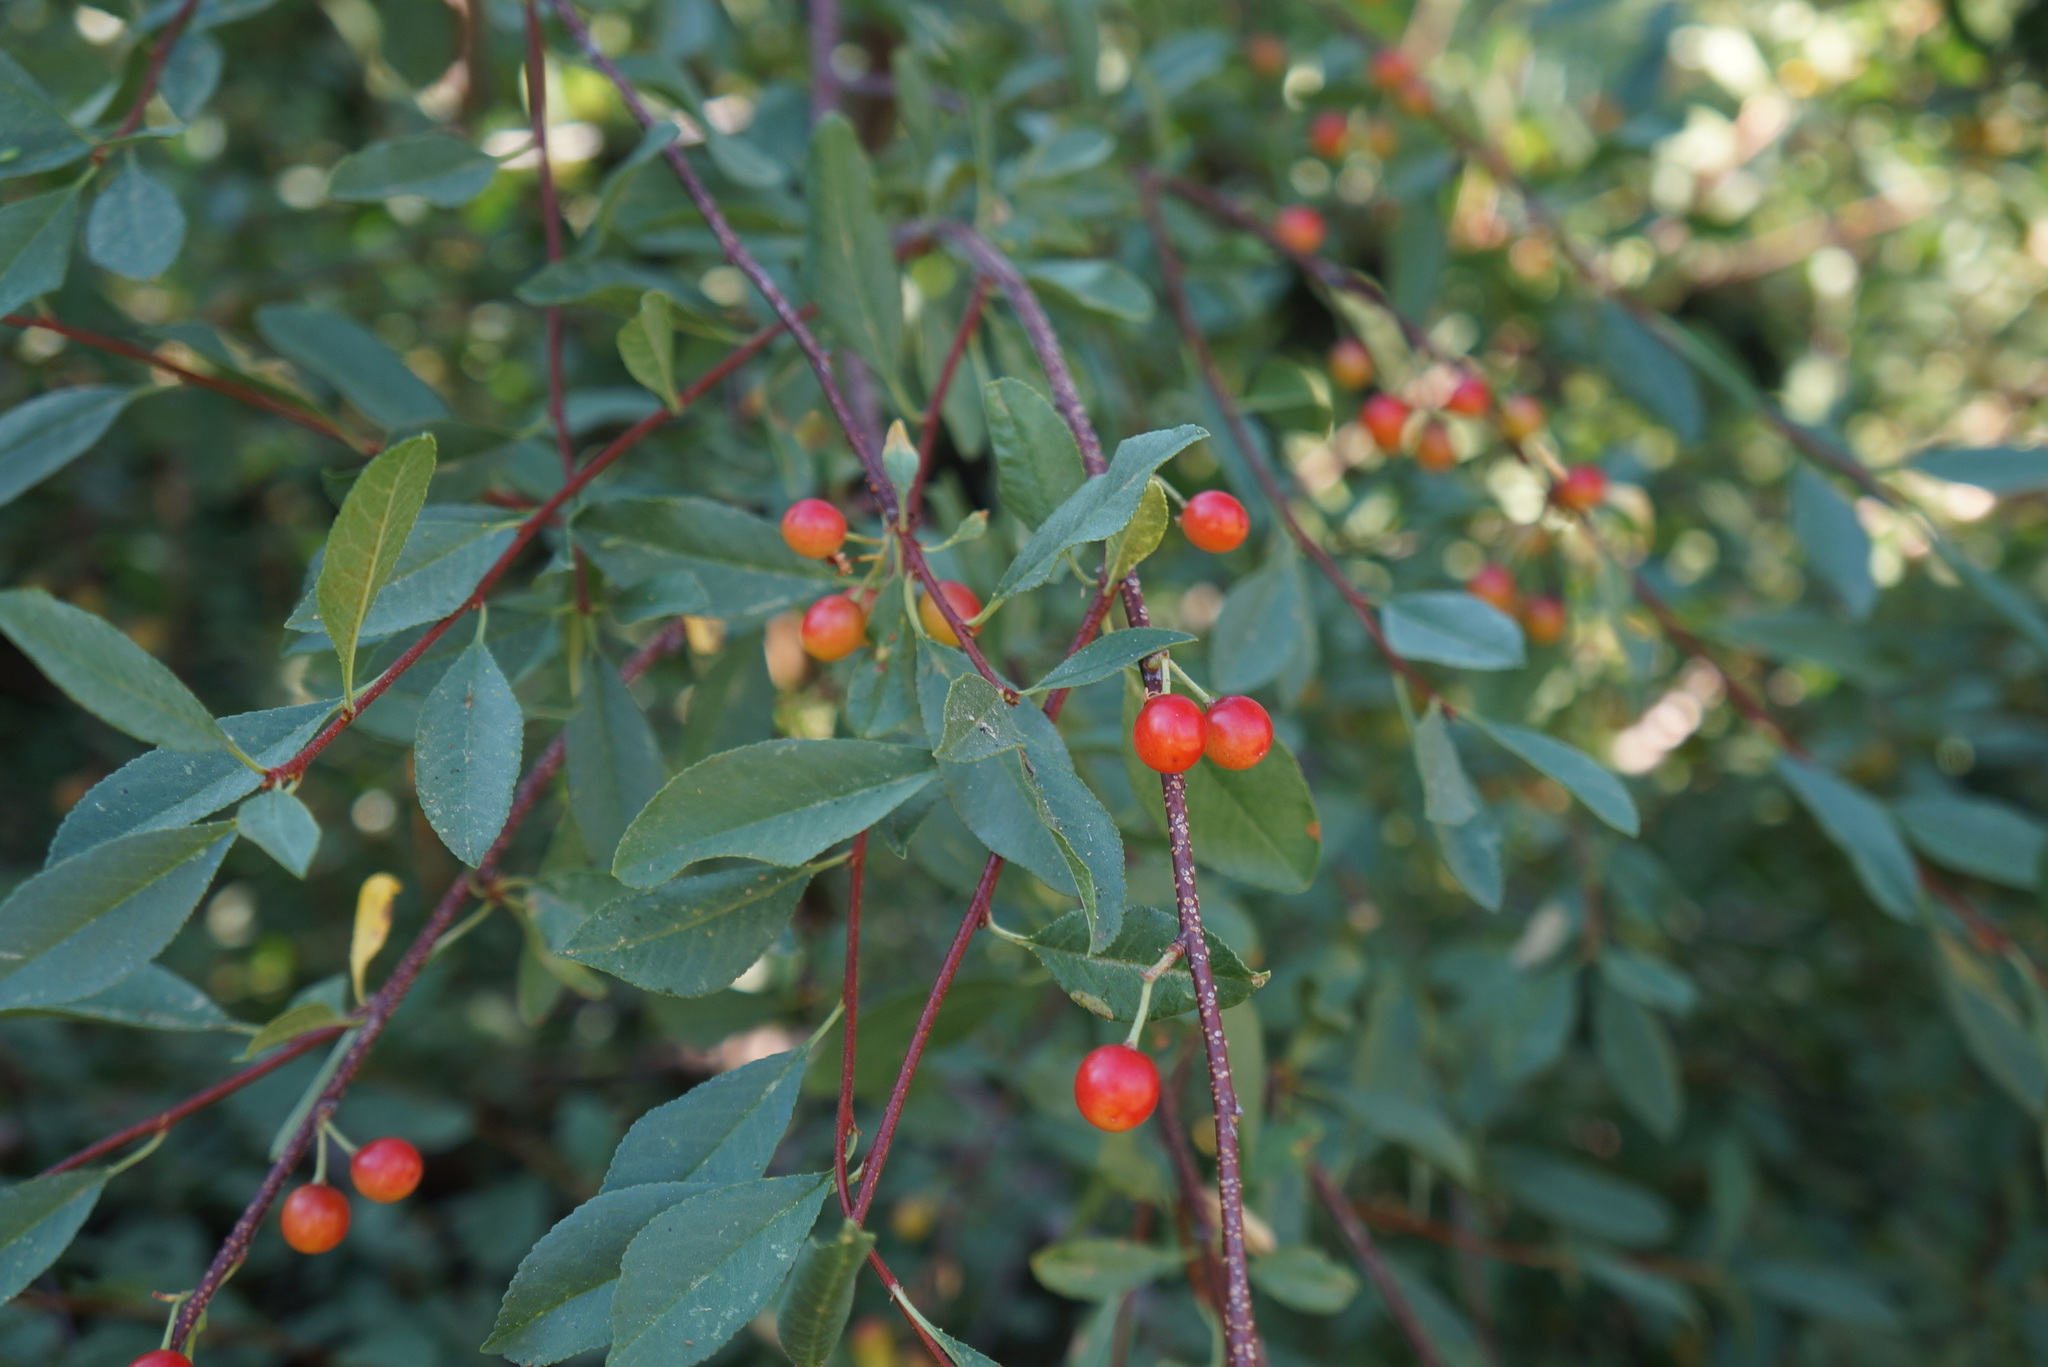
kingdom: Plantae
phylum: Tracheophyta
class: Magnoliopsida
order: Rosales
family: Rosaceae
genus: Prunus
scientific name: Prunus emarginata
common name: Bitter cherry
